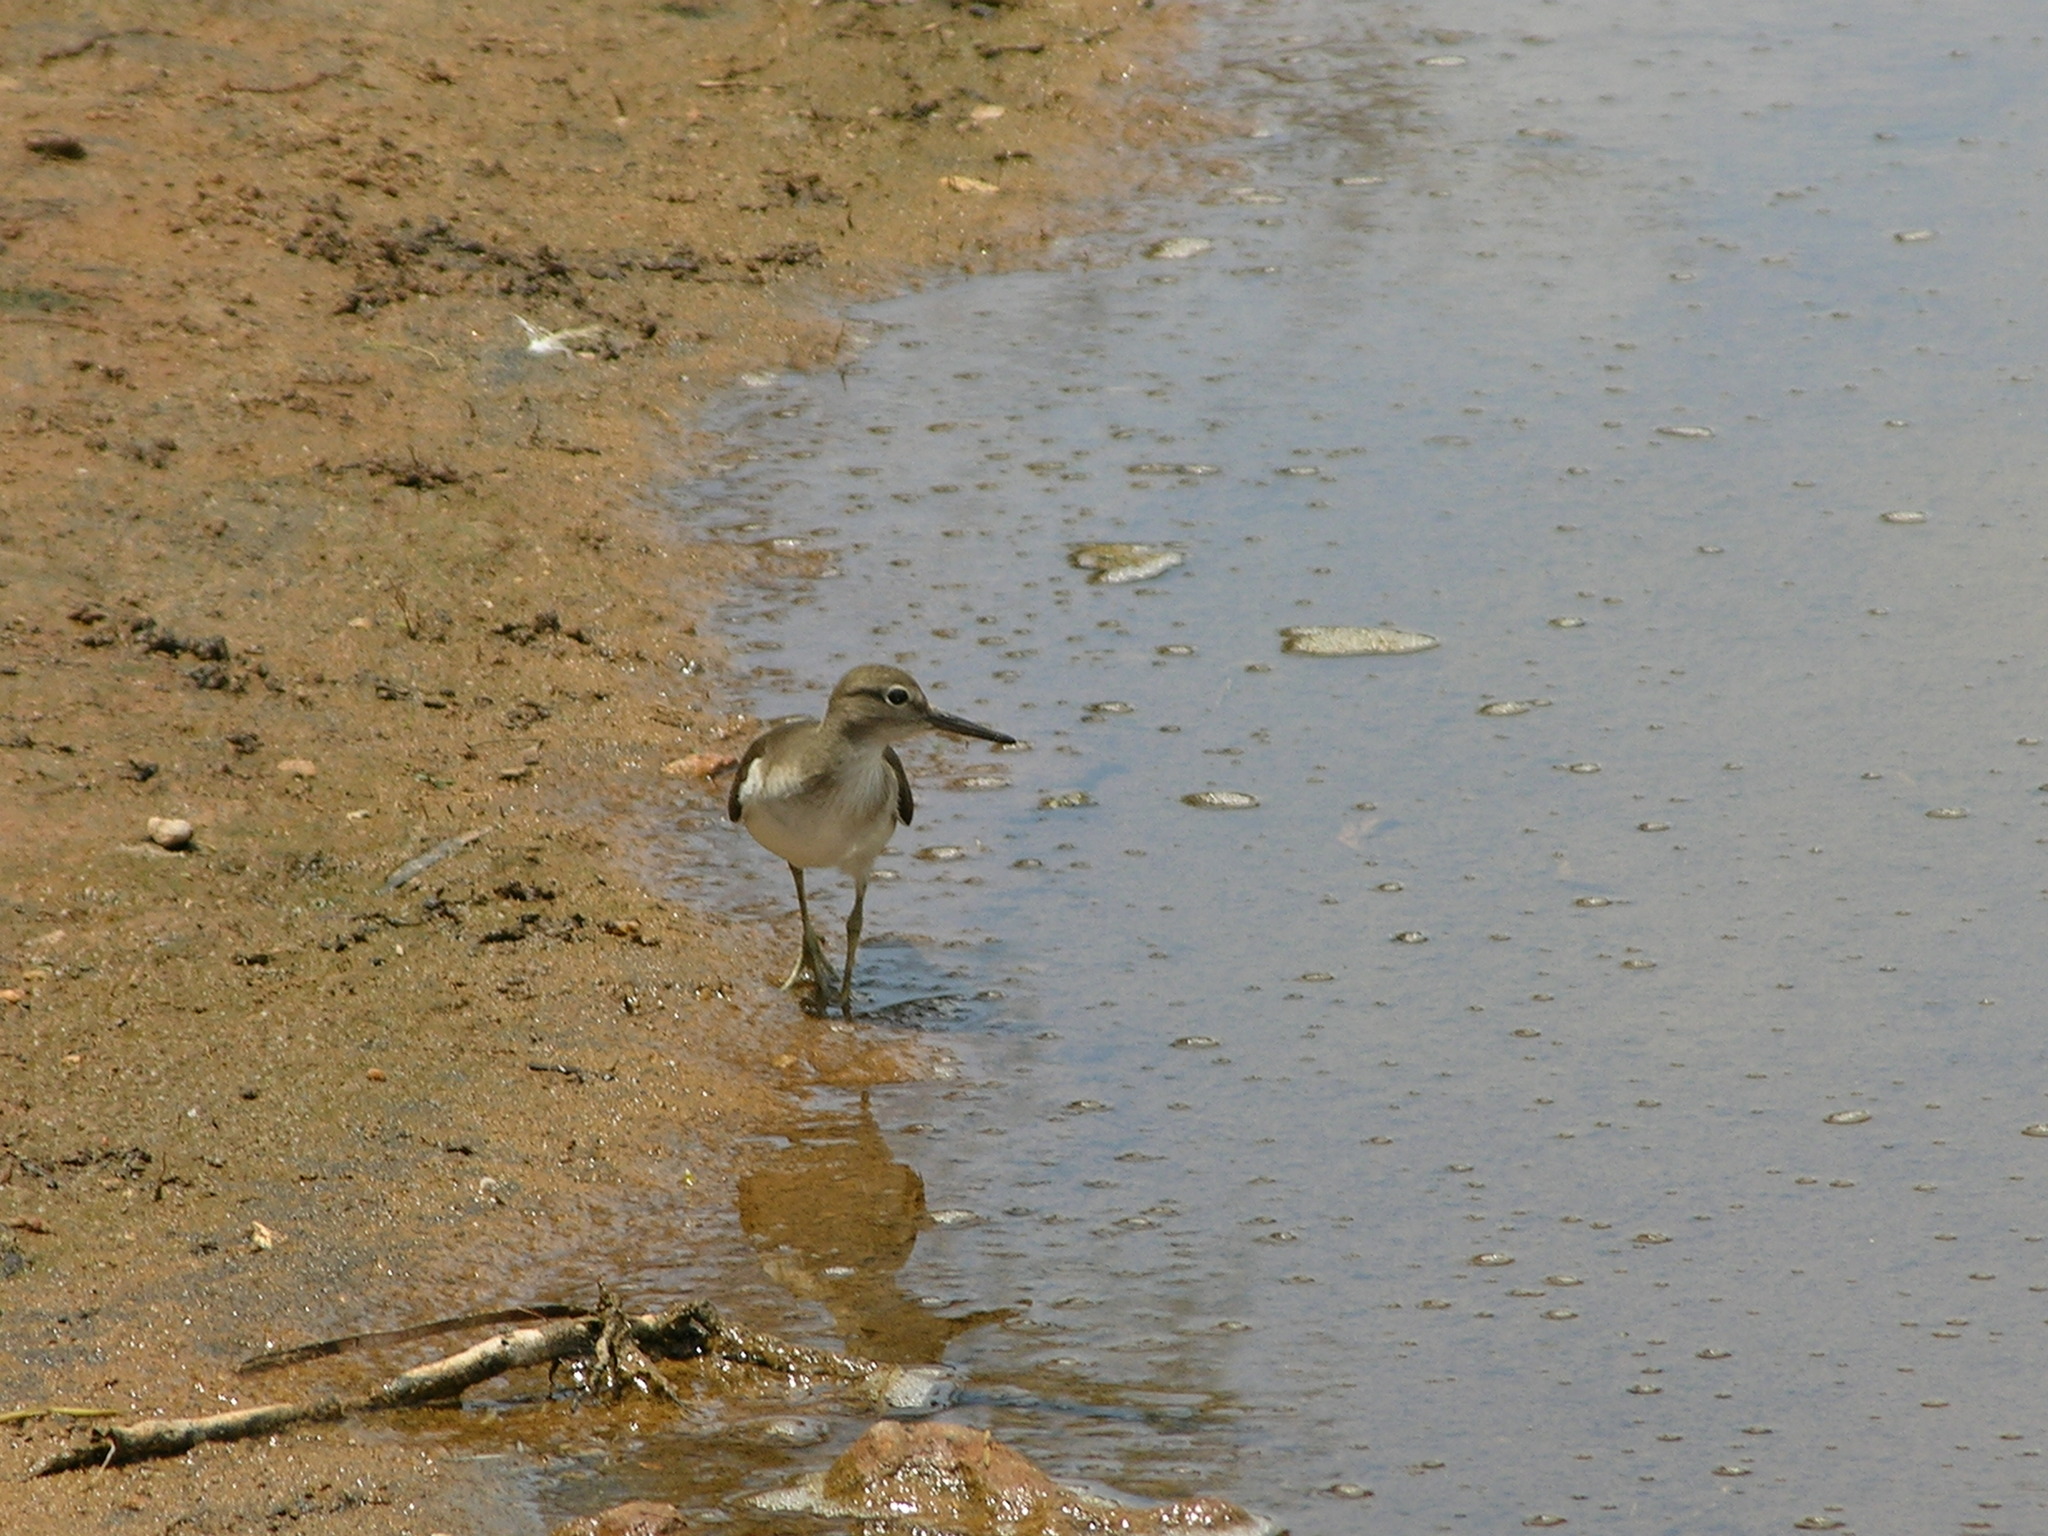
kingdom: Animalia
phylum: Chordata
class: Aves
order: Charadriiformes
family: Scolopacidae
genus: Actitis
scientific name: Actitis hypoleucos
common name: Common sandpiper
